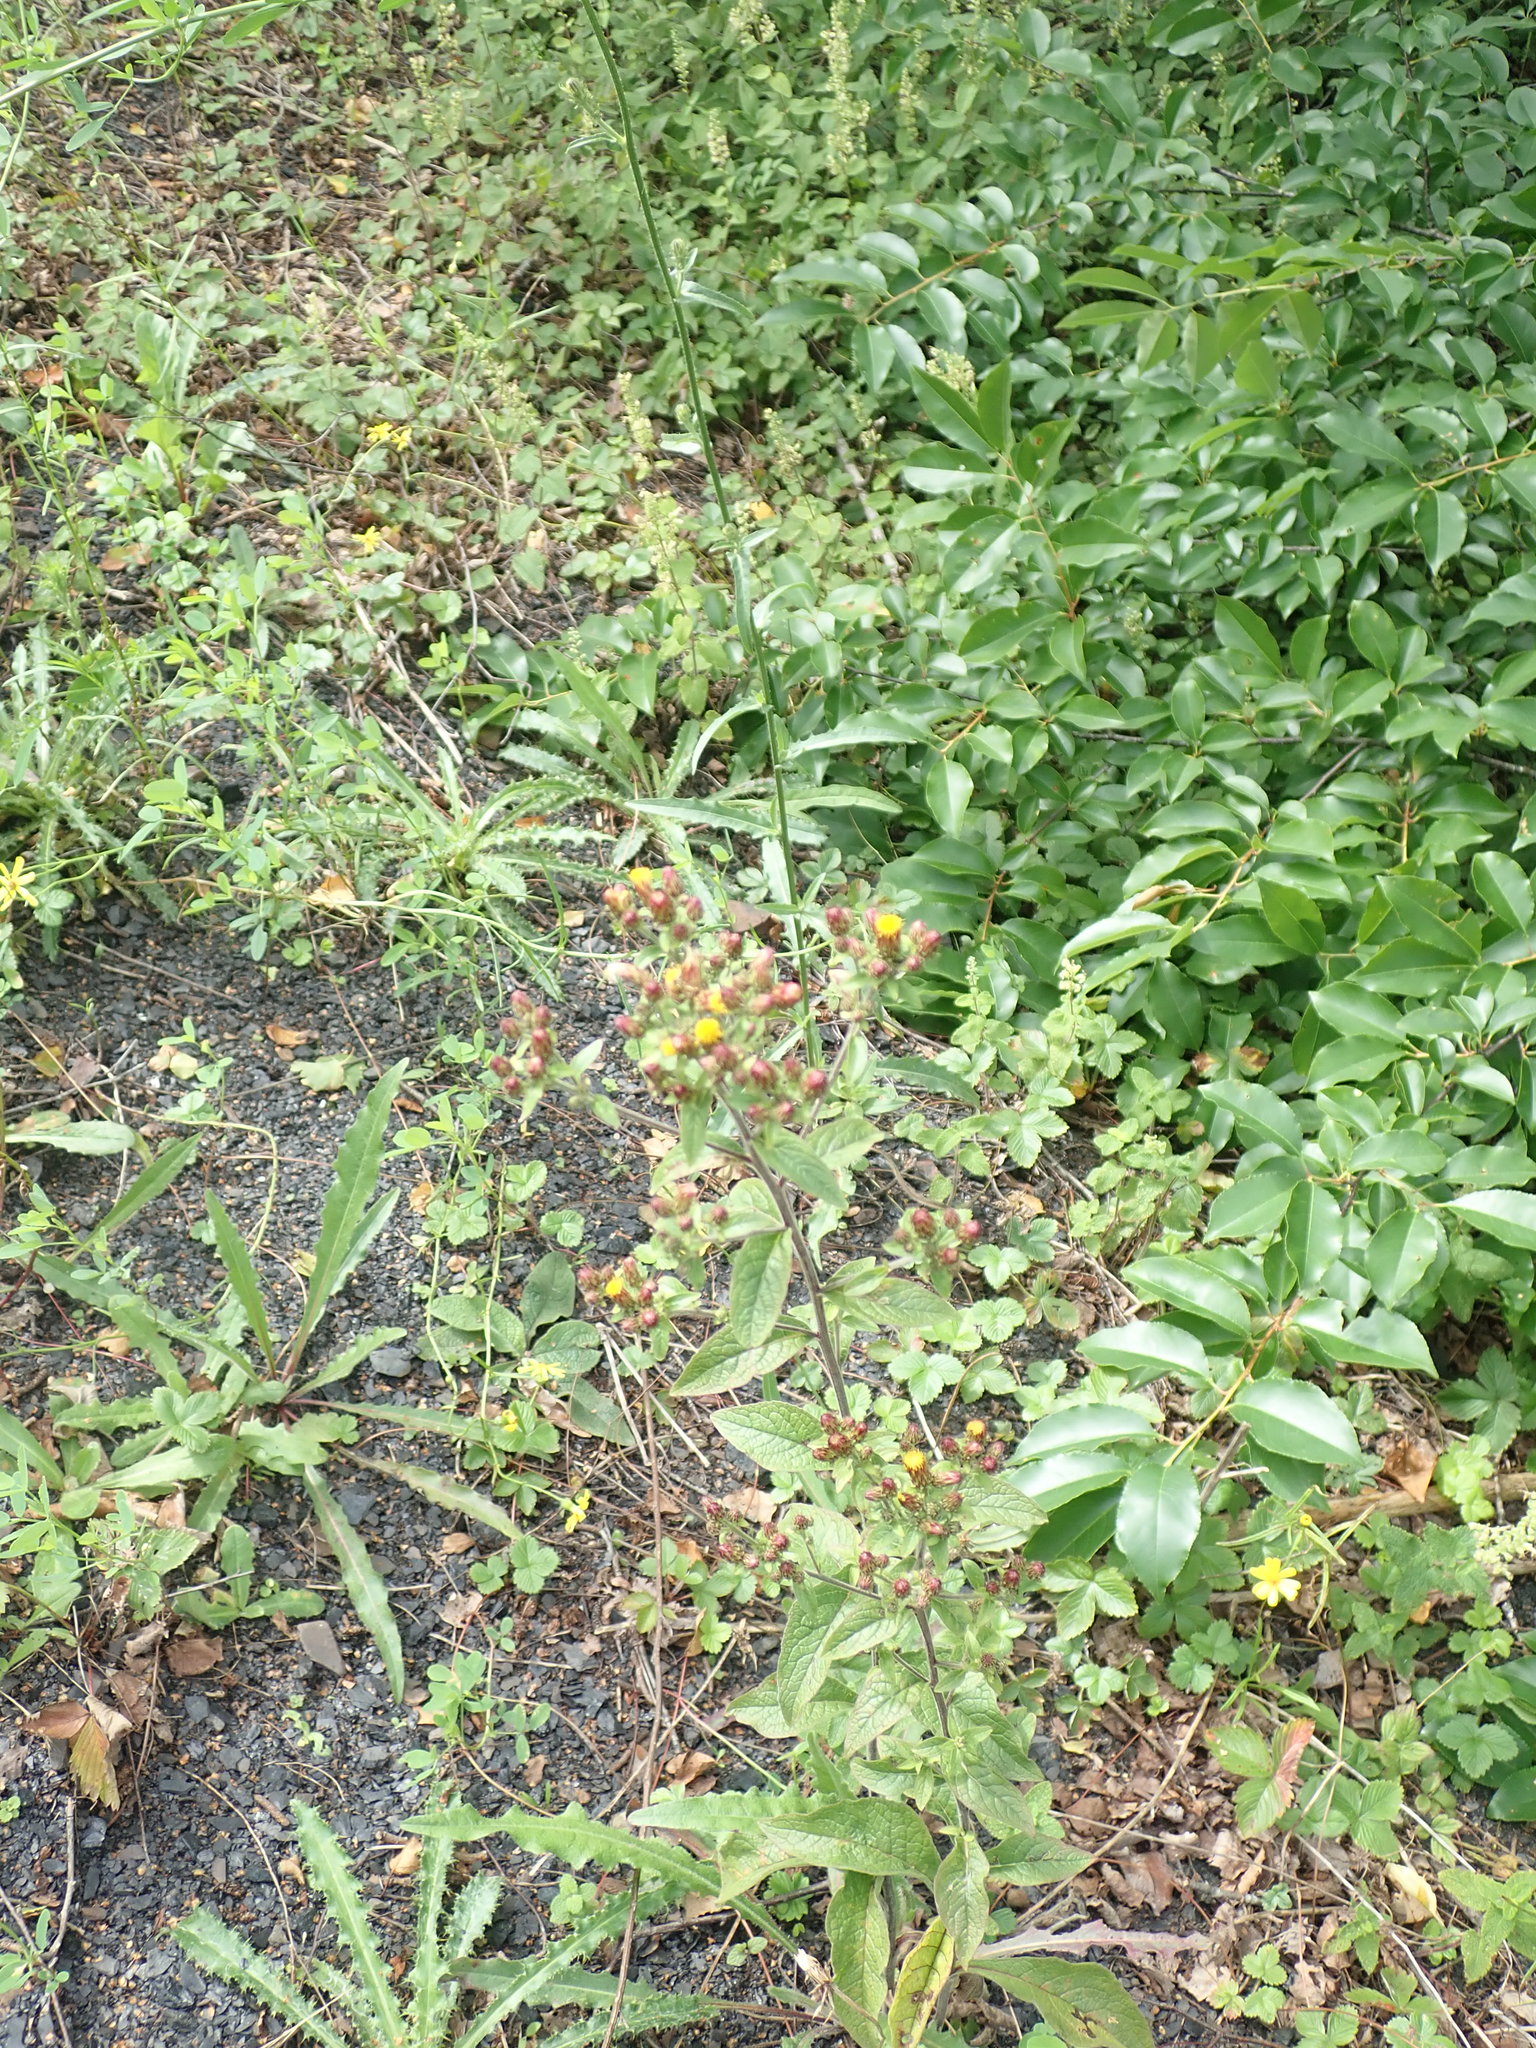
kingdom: Plantae
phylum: Tracheophyta
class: Magnoliopsida
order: Asterales
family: Asteraceae
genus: Pentanema
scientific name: Pentanema squarrosum
